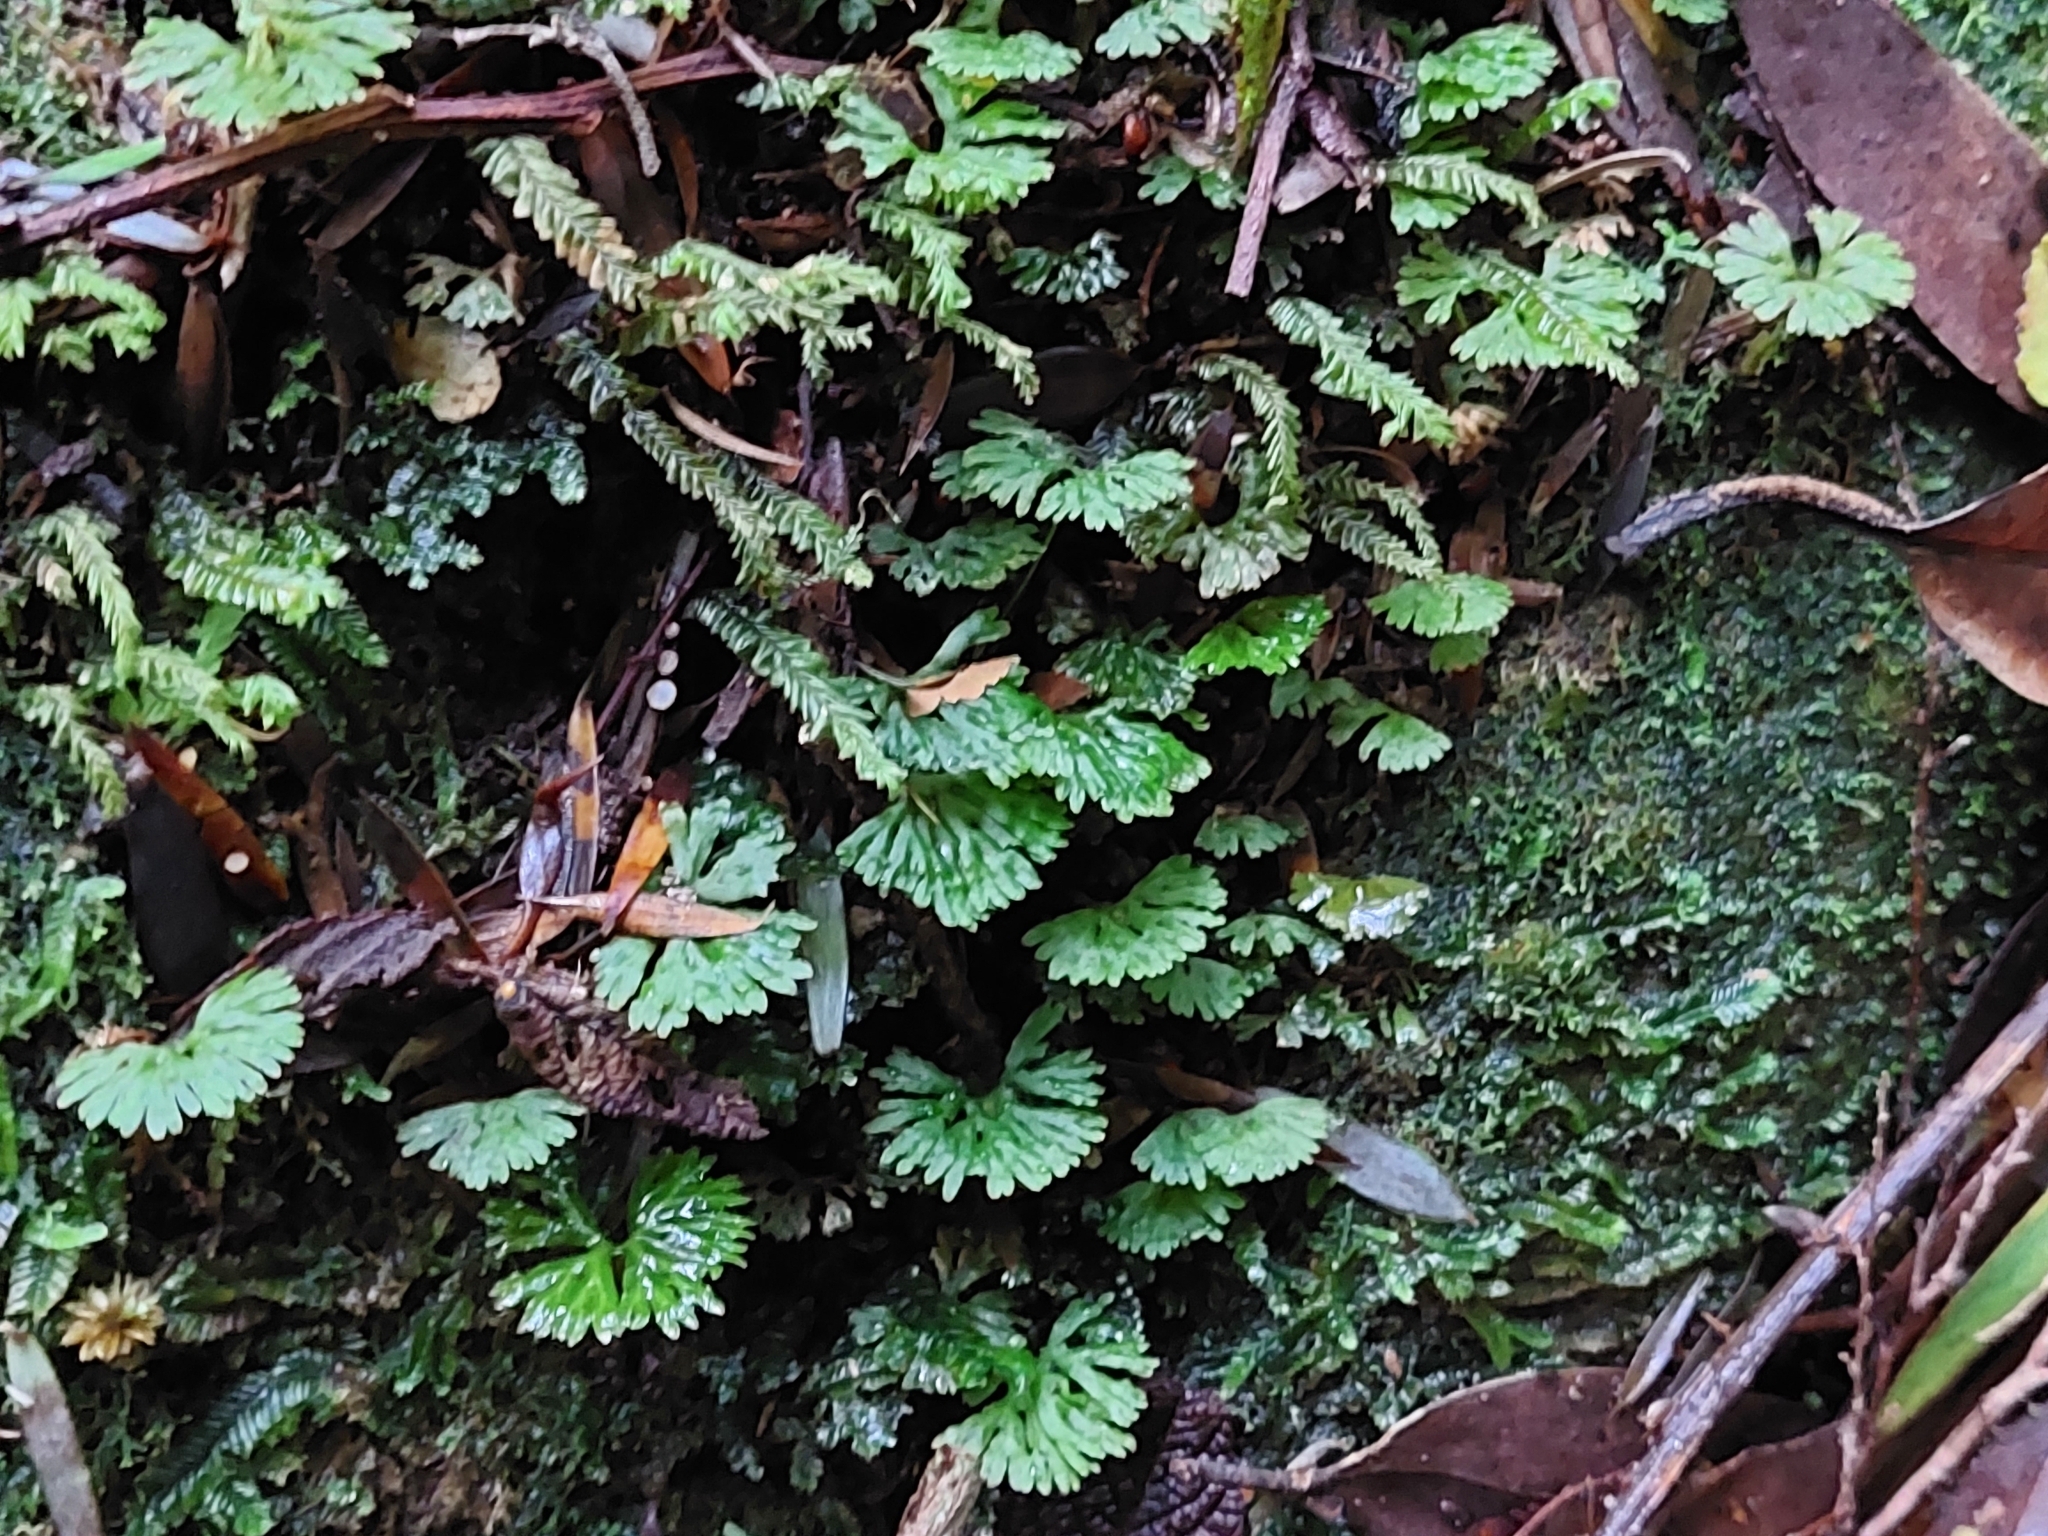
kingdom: Plantae
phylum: Marchantiophyta
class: Jungermanniopsida
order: Pallaviciniales
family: Hymenophytaceae
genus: Hymenophyton
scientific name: Hymenophyton flabellatum
